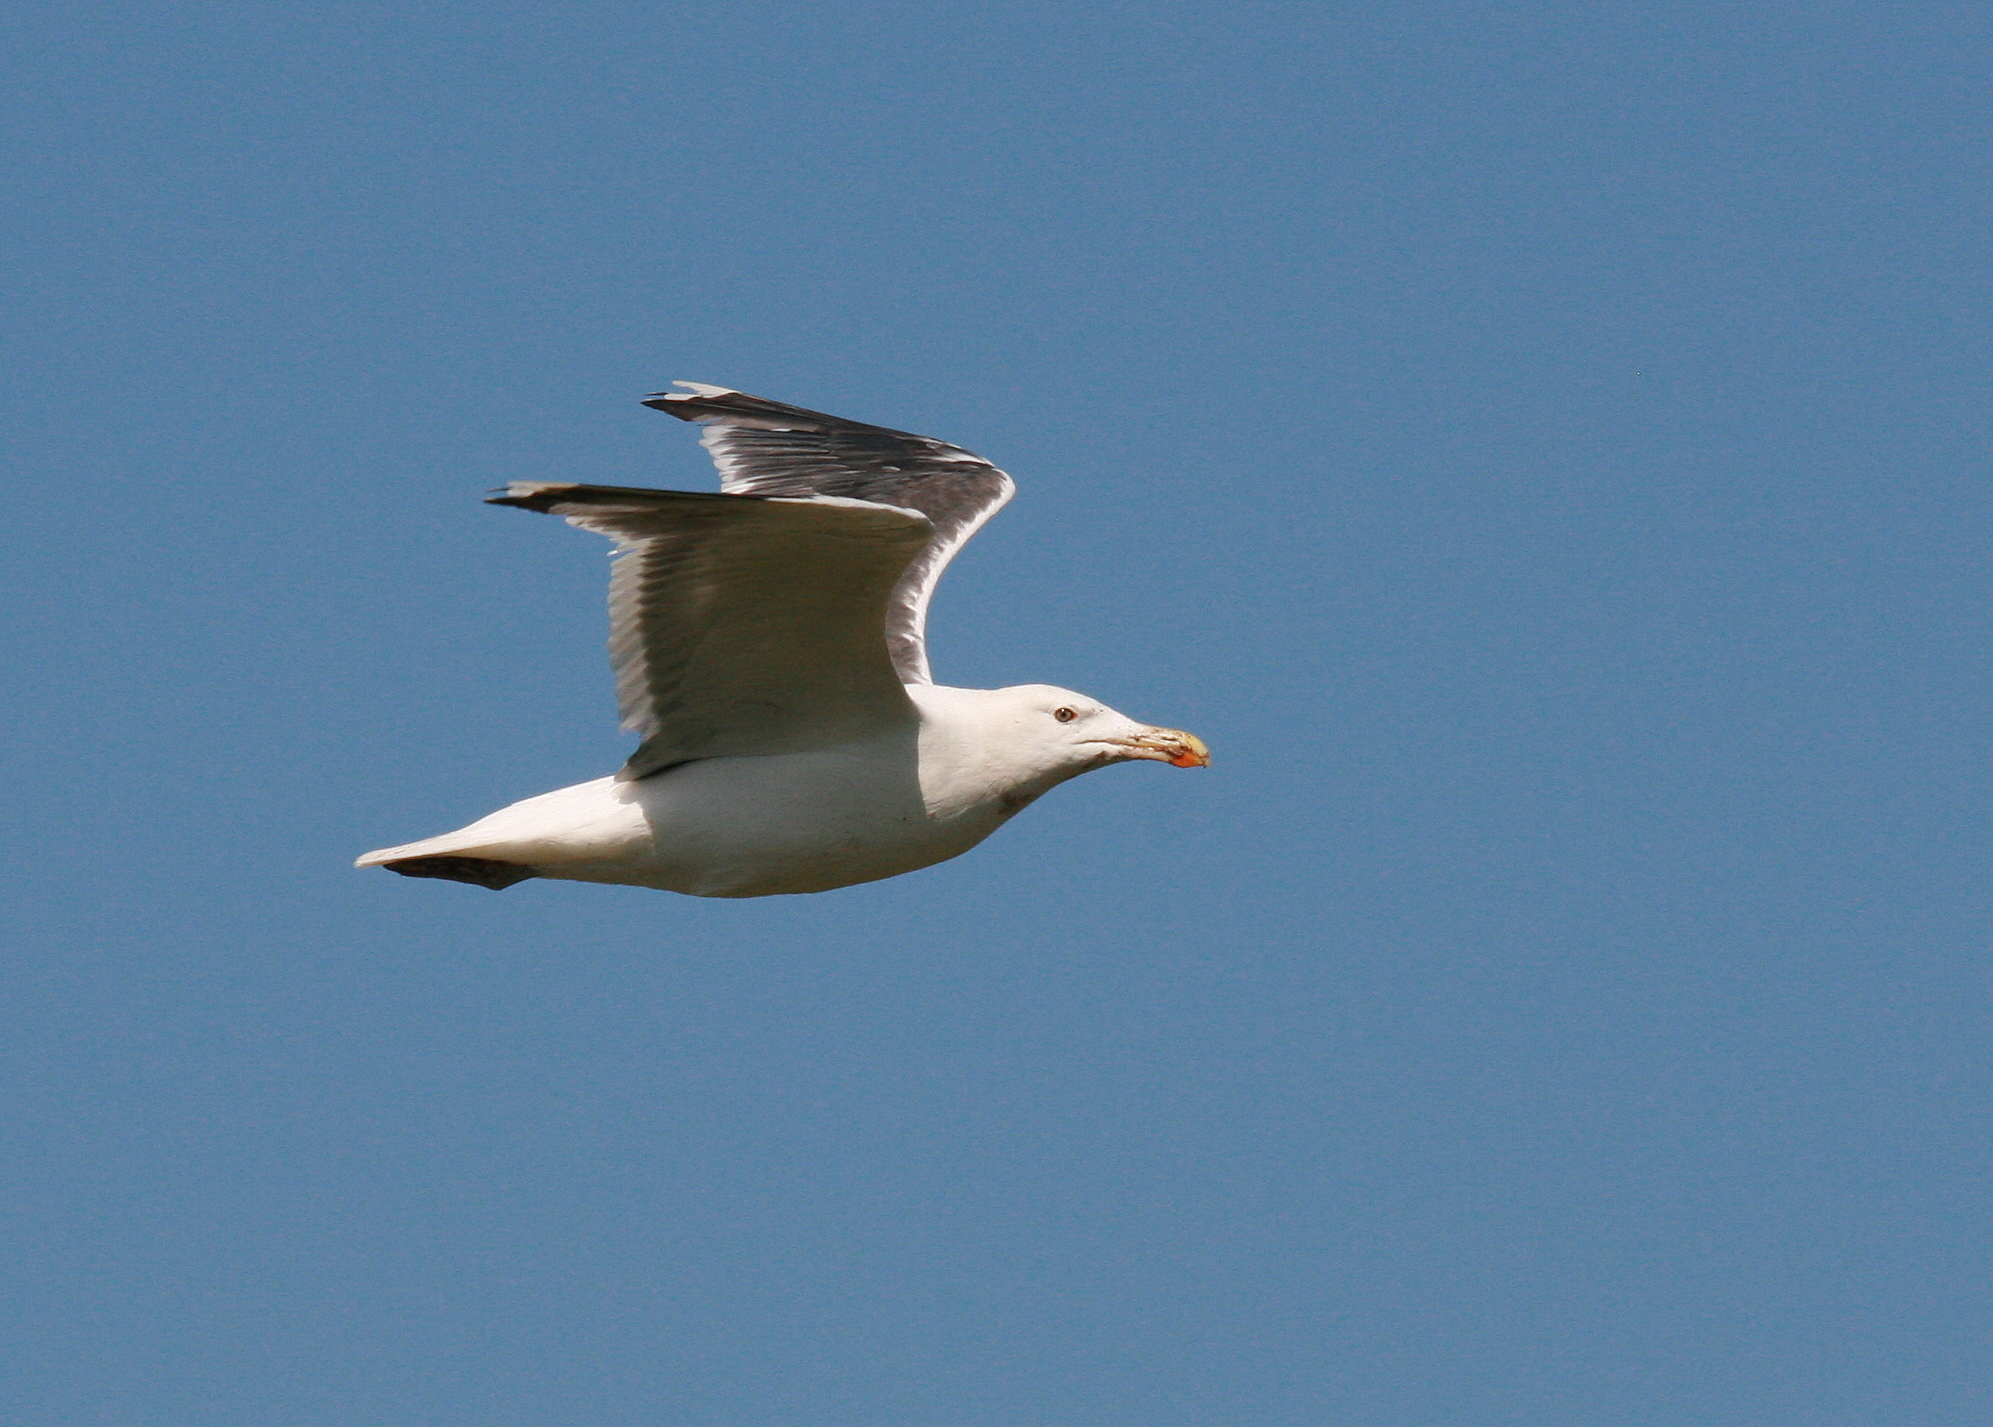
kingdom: Animalia
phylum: Chordata
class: Aves
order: Charadriiformes
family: Laridae
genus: Larus
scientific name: Larus marinus
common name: Great black-backed gull
